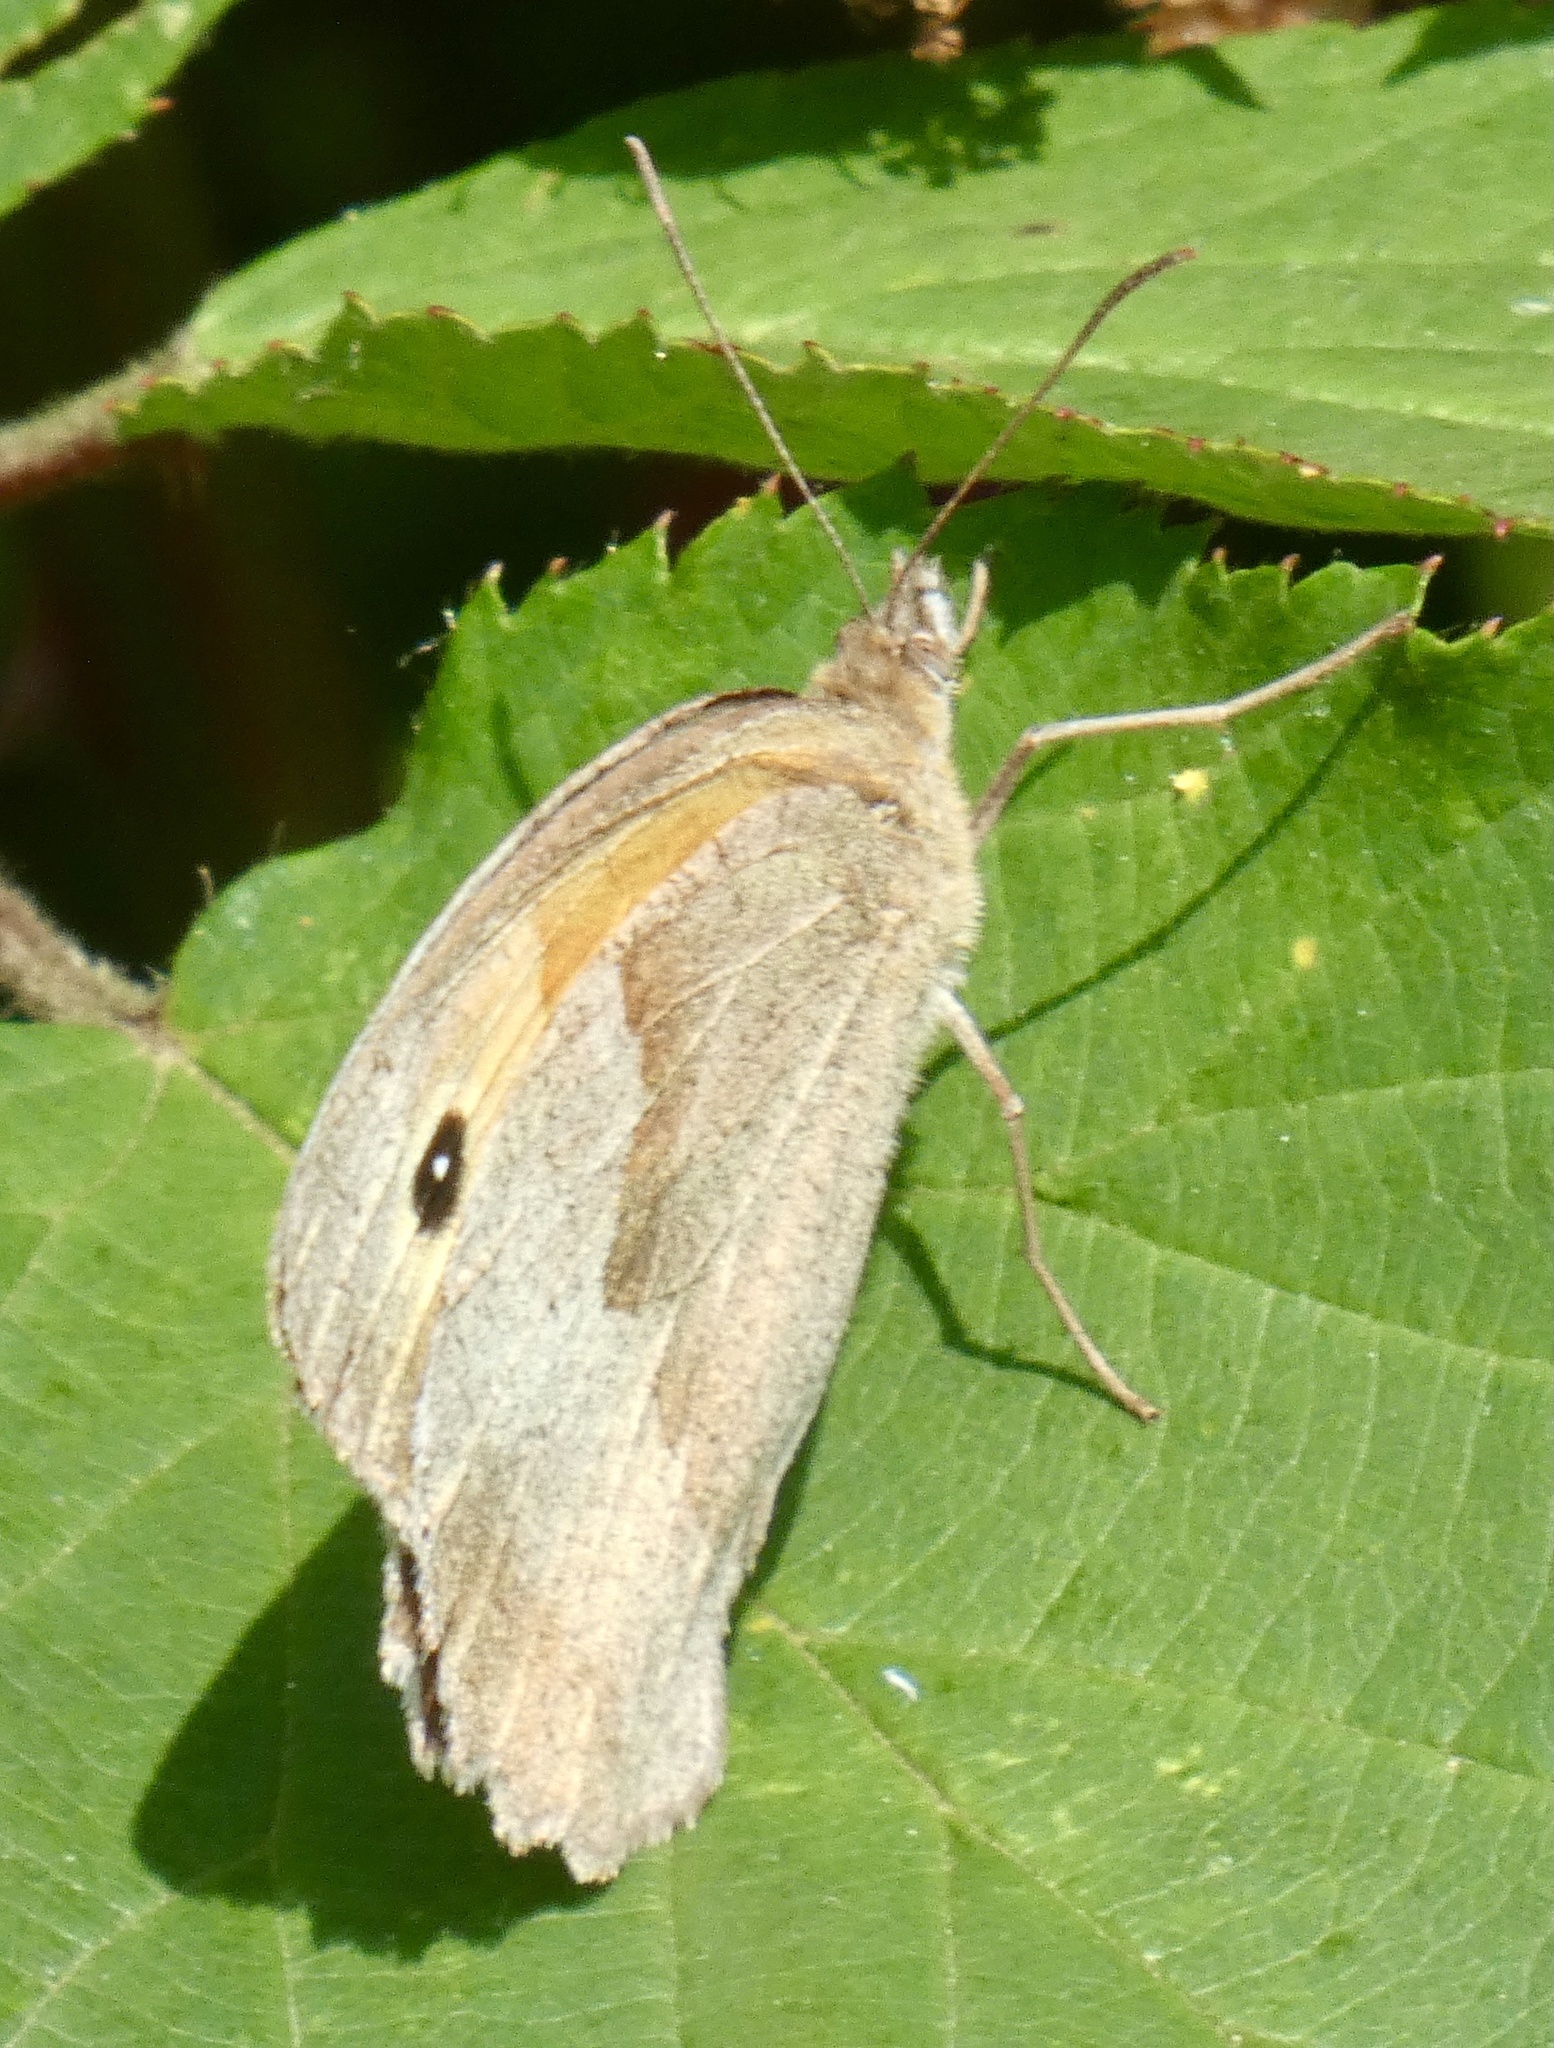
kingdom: Animalia
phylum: Arthropoda
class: Insecta
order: Lepidoptera
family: Nymphalidae
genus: Maniola
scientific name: Maniola jurtina
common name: Meadow brown
